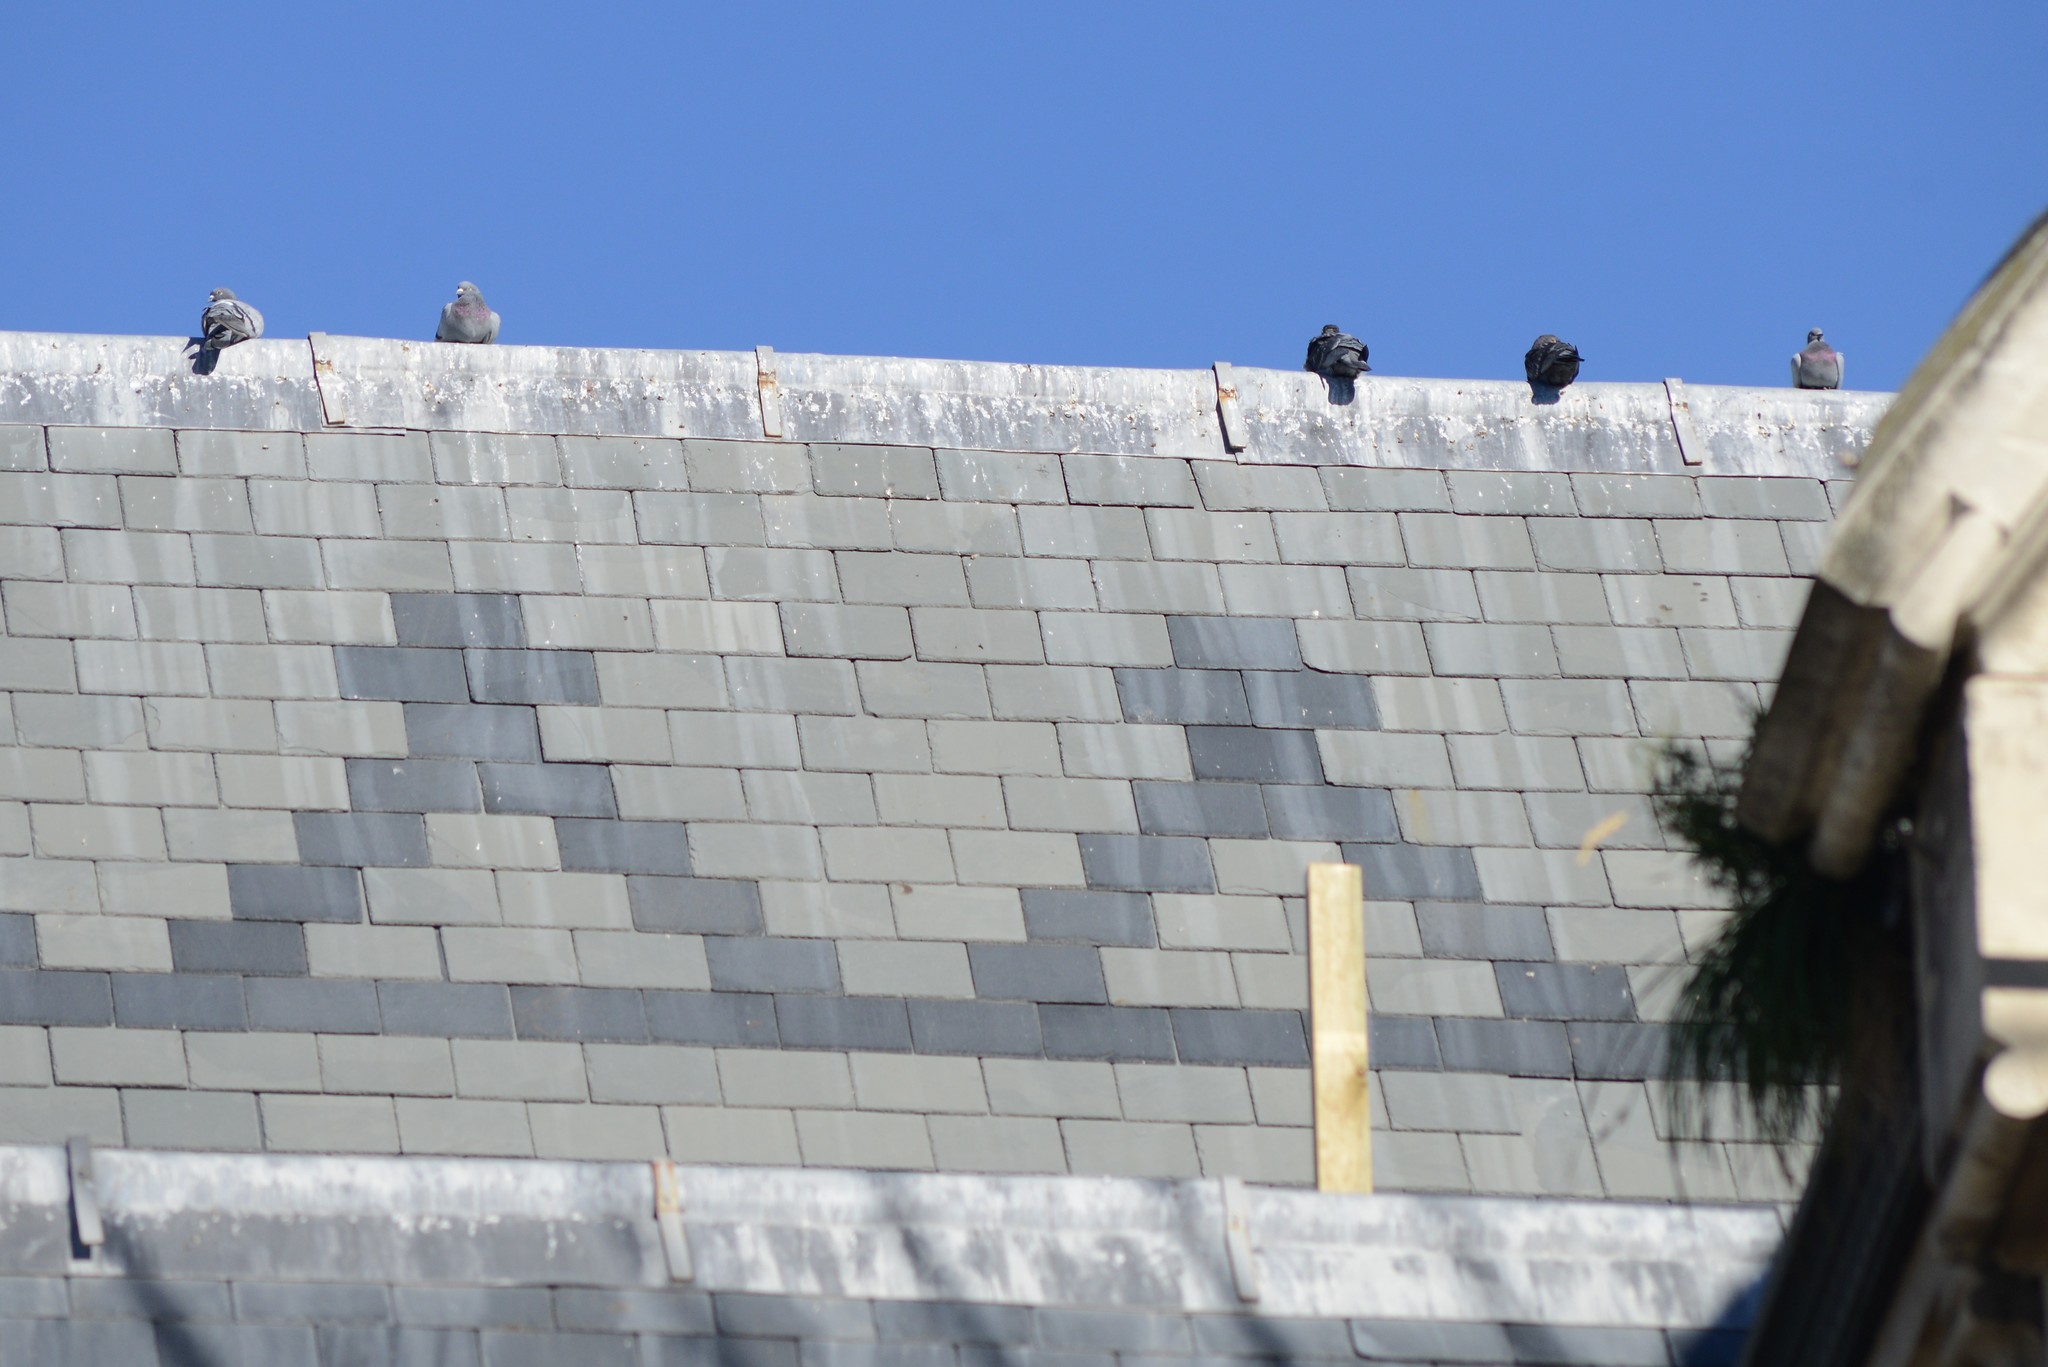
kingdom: Animalia
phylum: Chordata
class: Aves
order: Columbiformes
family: Columbidae
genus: Columba
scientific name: Columba livia
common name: Rock pigeon
